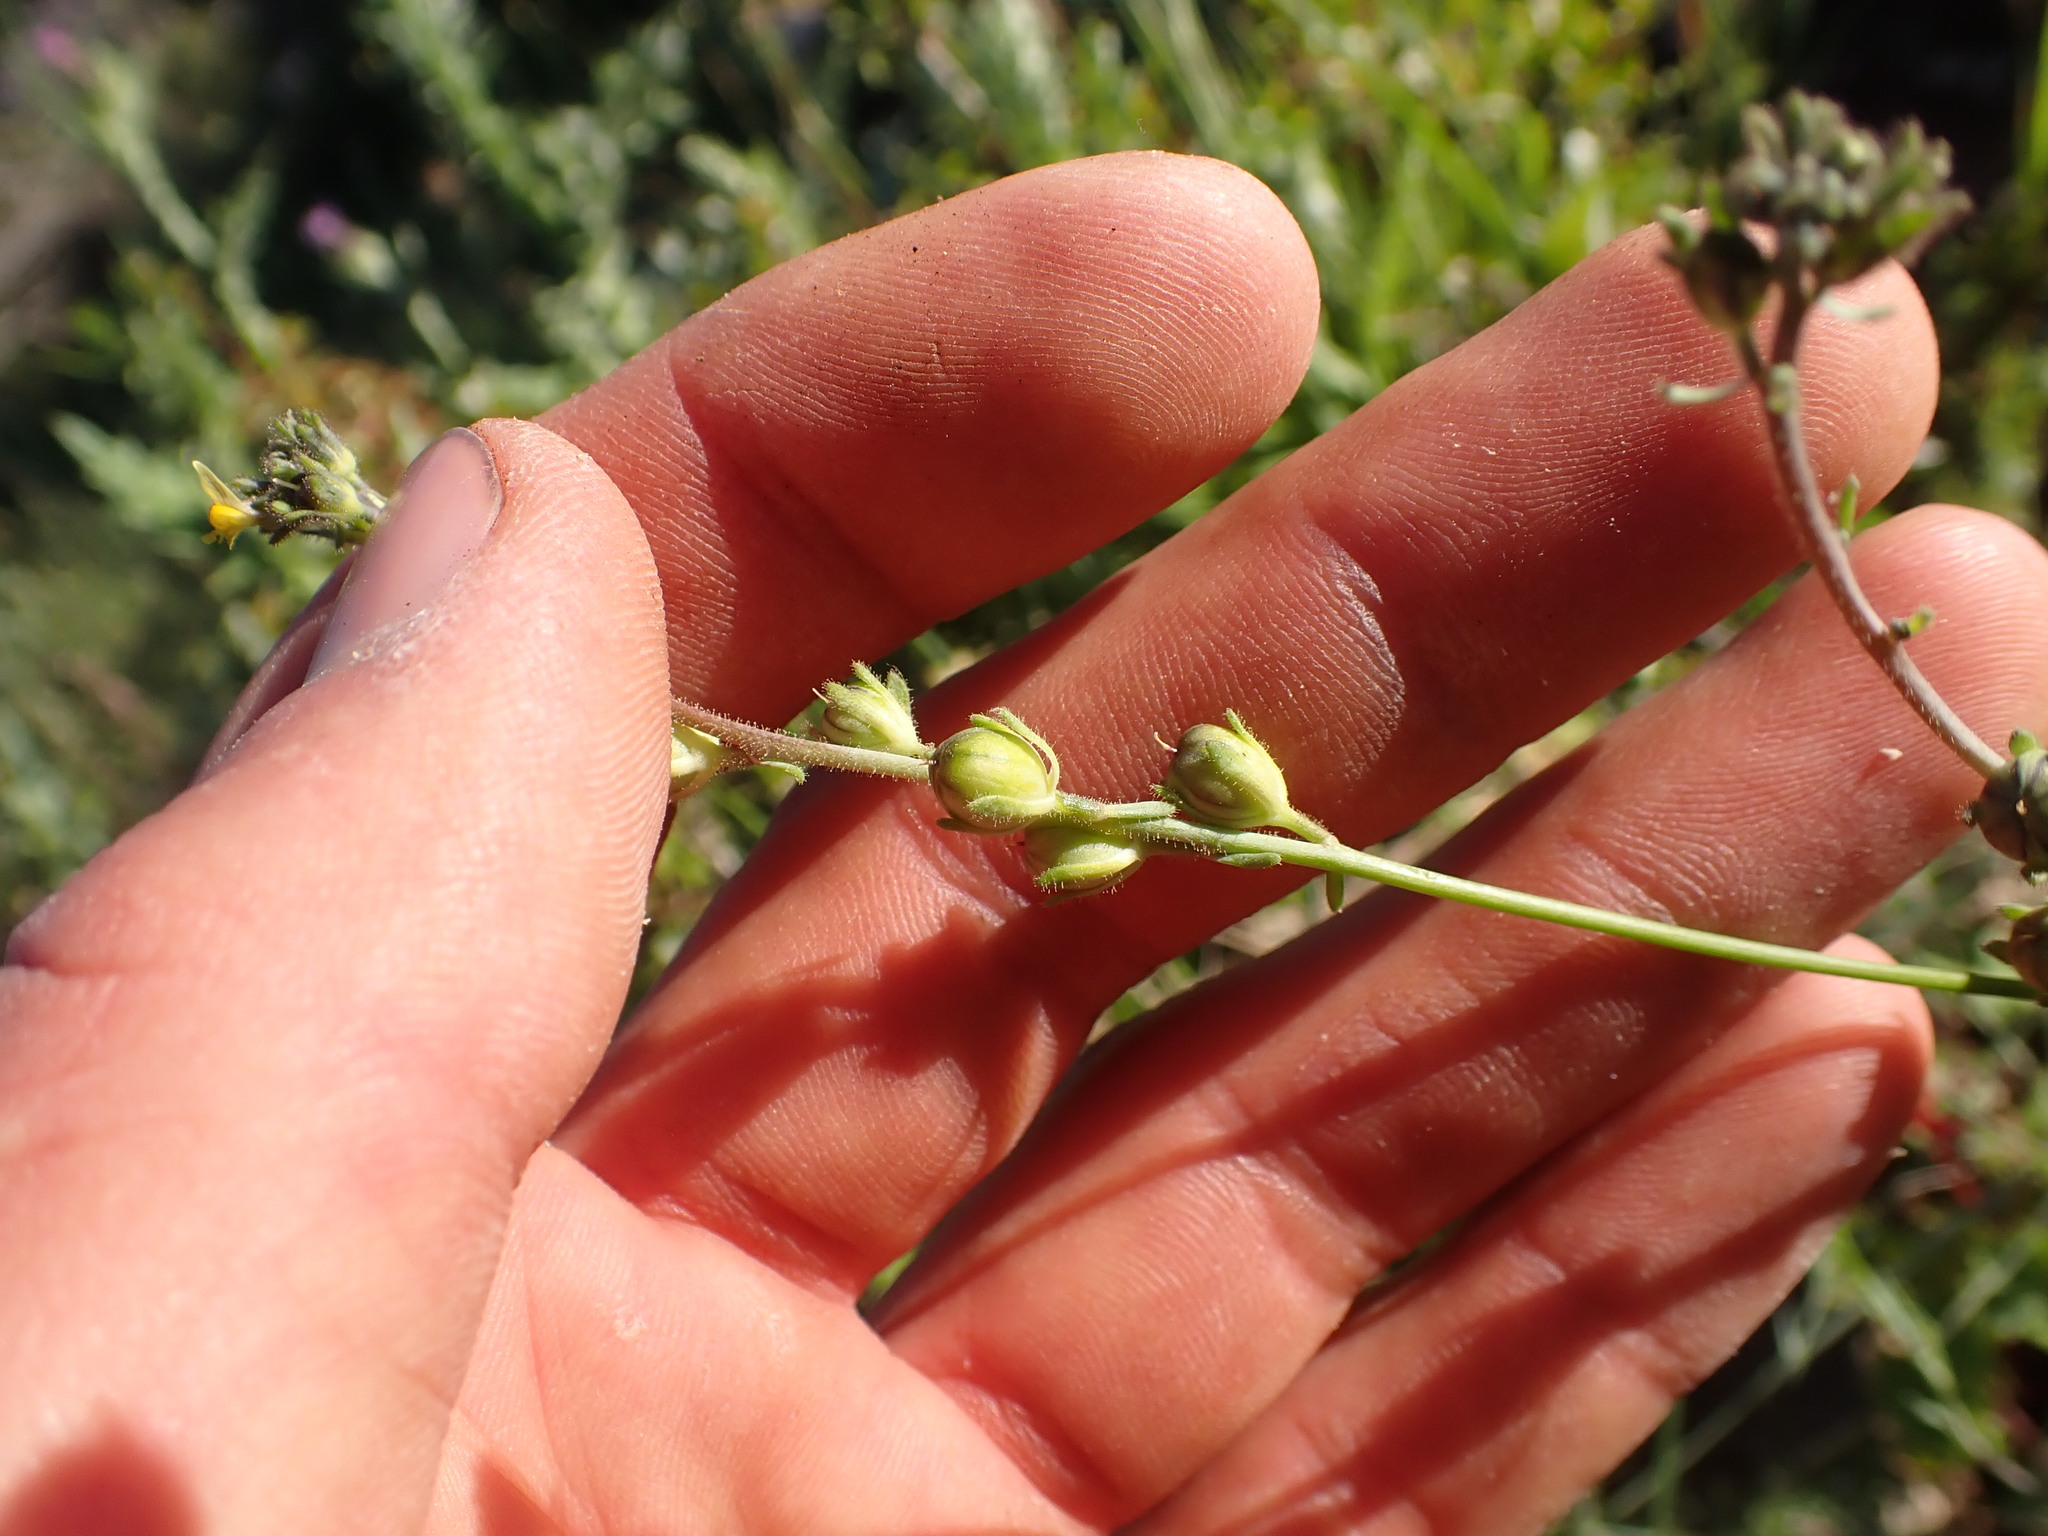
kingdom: Plantae
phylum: Tracheophyta
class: Magnoliopsida
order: Lamiales
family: Plantaginaceae
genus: Linaria
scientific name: Linaria simplex
